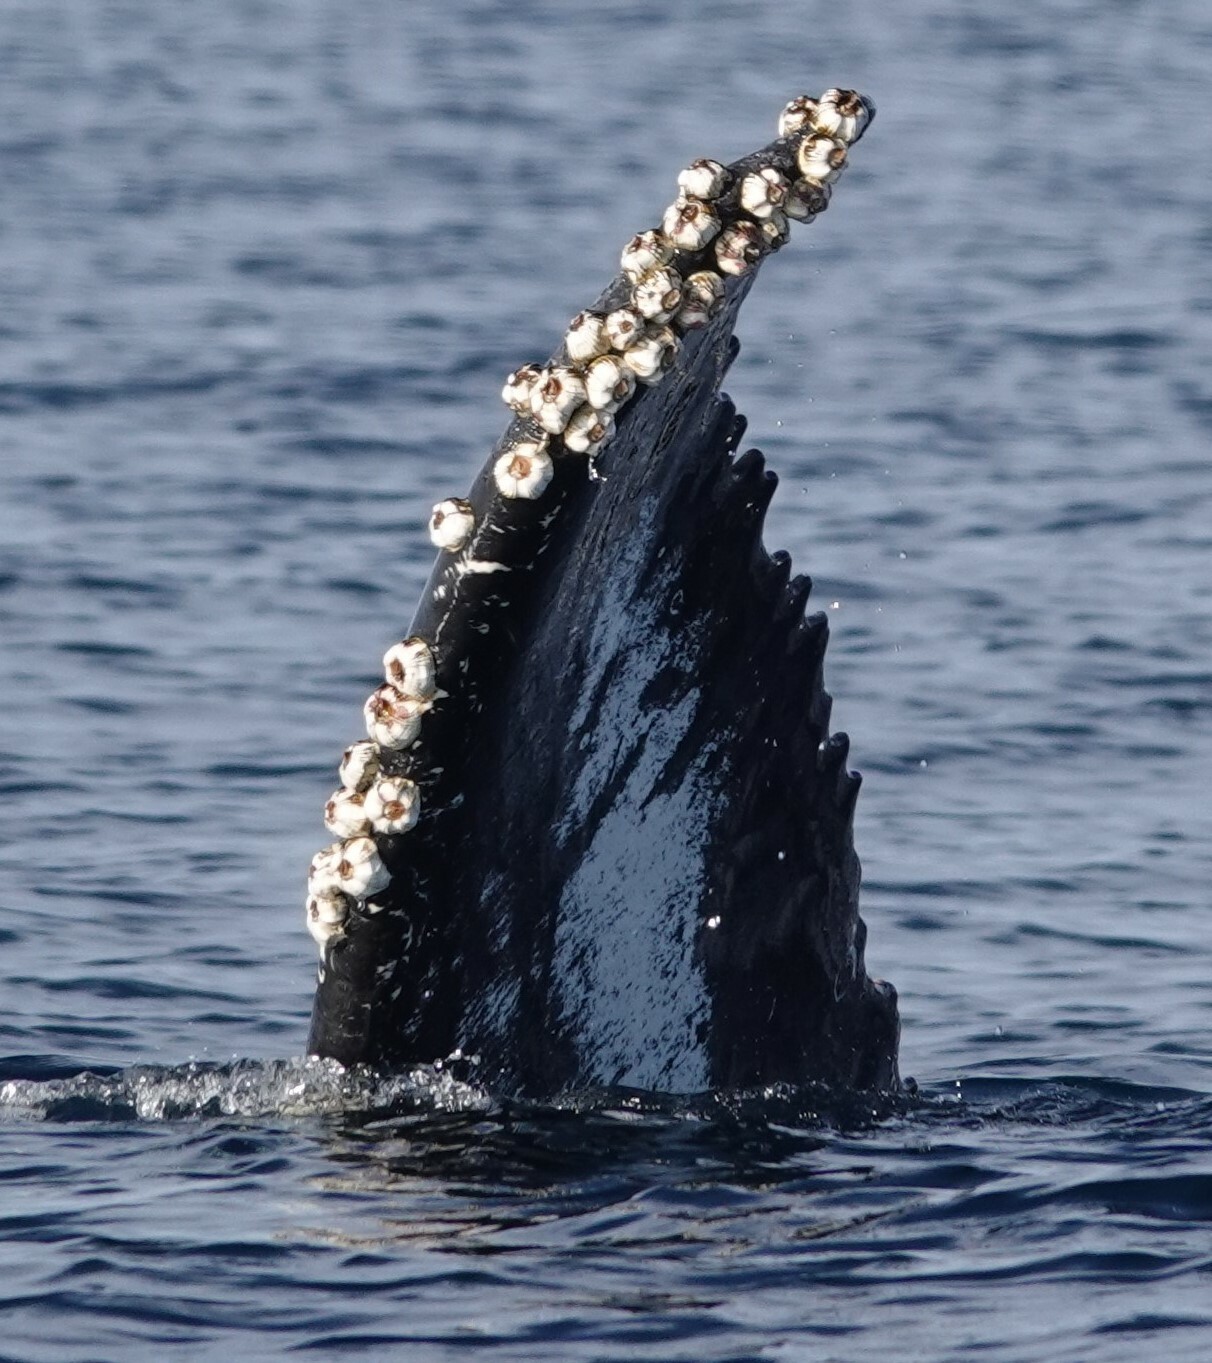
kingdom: Animalia
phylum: Arthropoda
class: Maxillopoda
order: Sessilia
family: Coronulidae
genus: Coronula
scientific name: Coronula diadema
